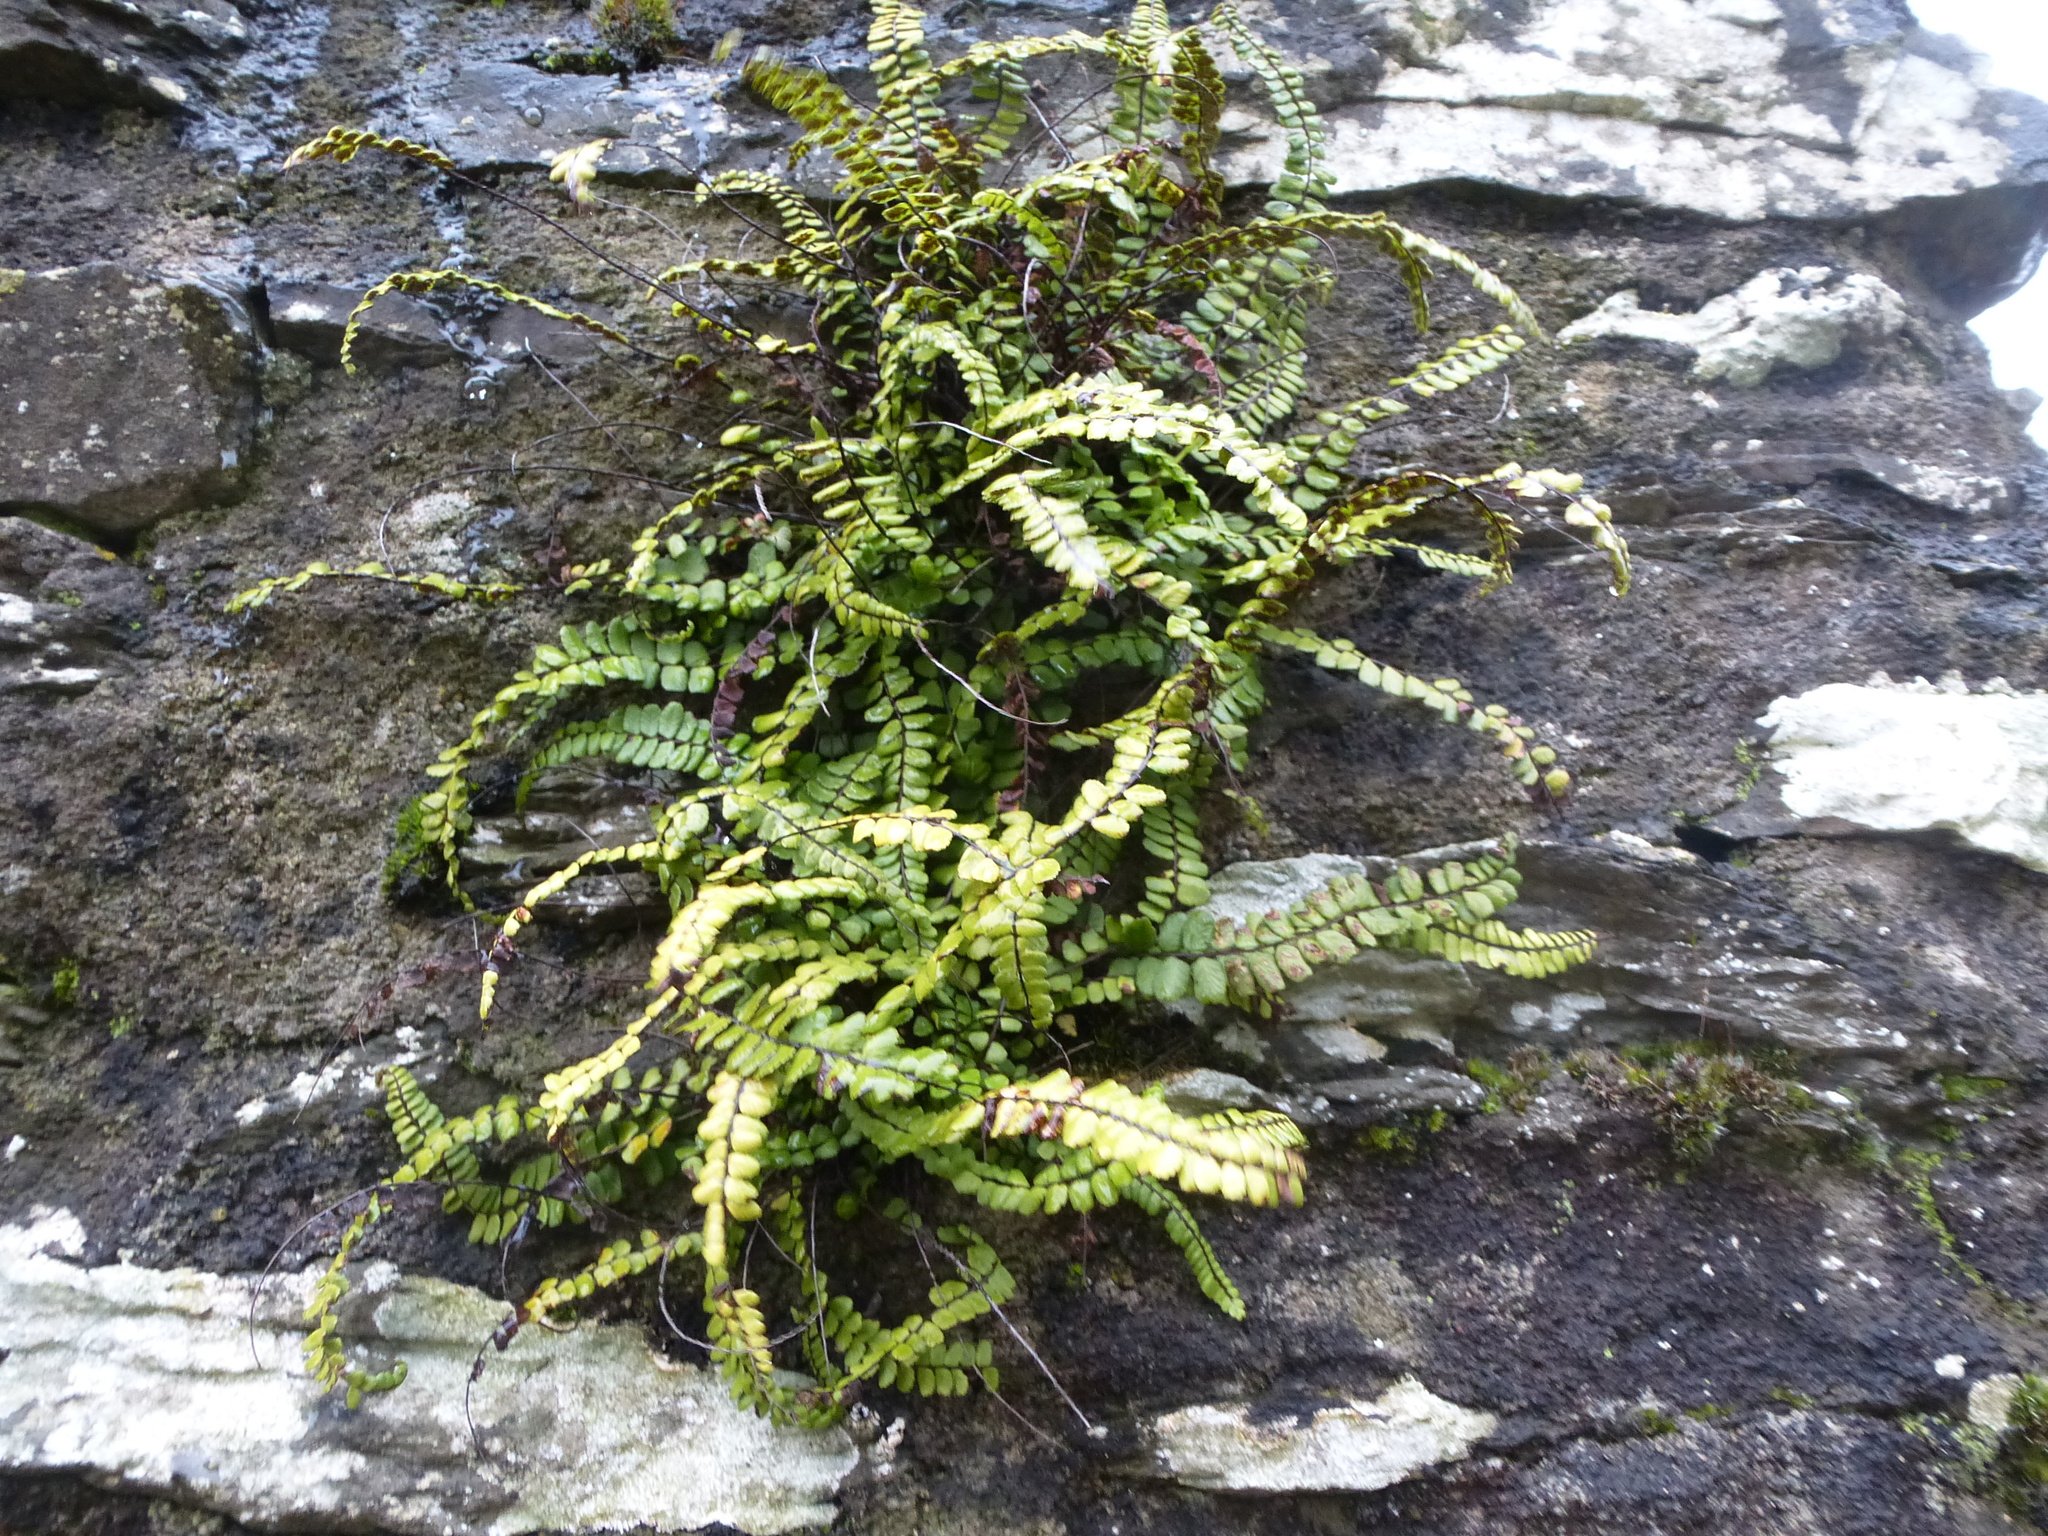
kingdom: Plantae
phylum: Tracheophyta
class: Polypodiopsida
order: Polypodiales
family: Aspleniaceae
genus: Asplenium
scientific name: Asplenium trichomanes
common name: Maidenhair spleenwort
